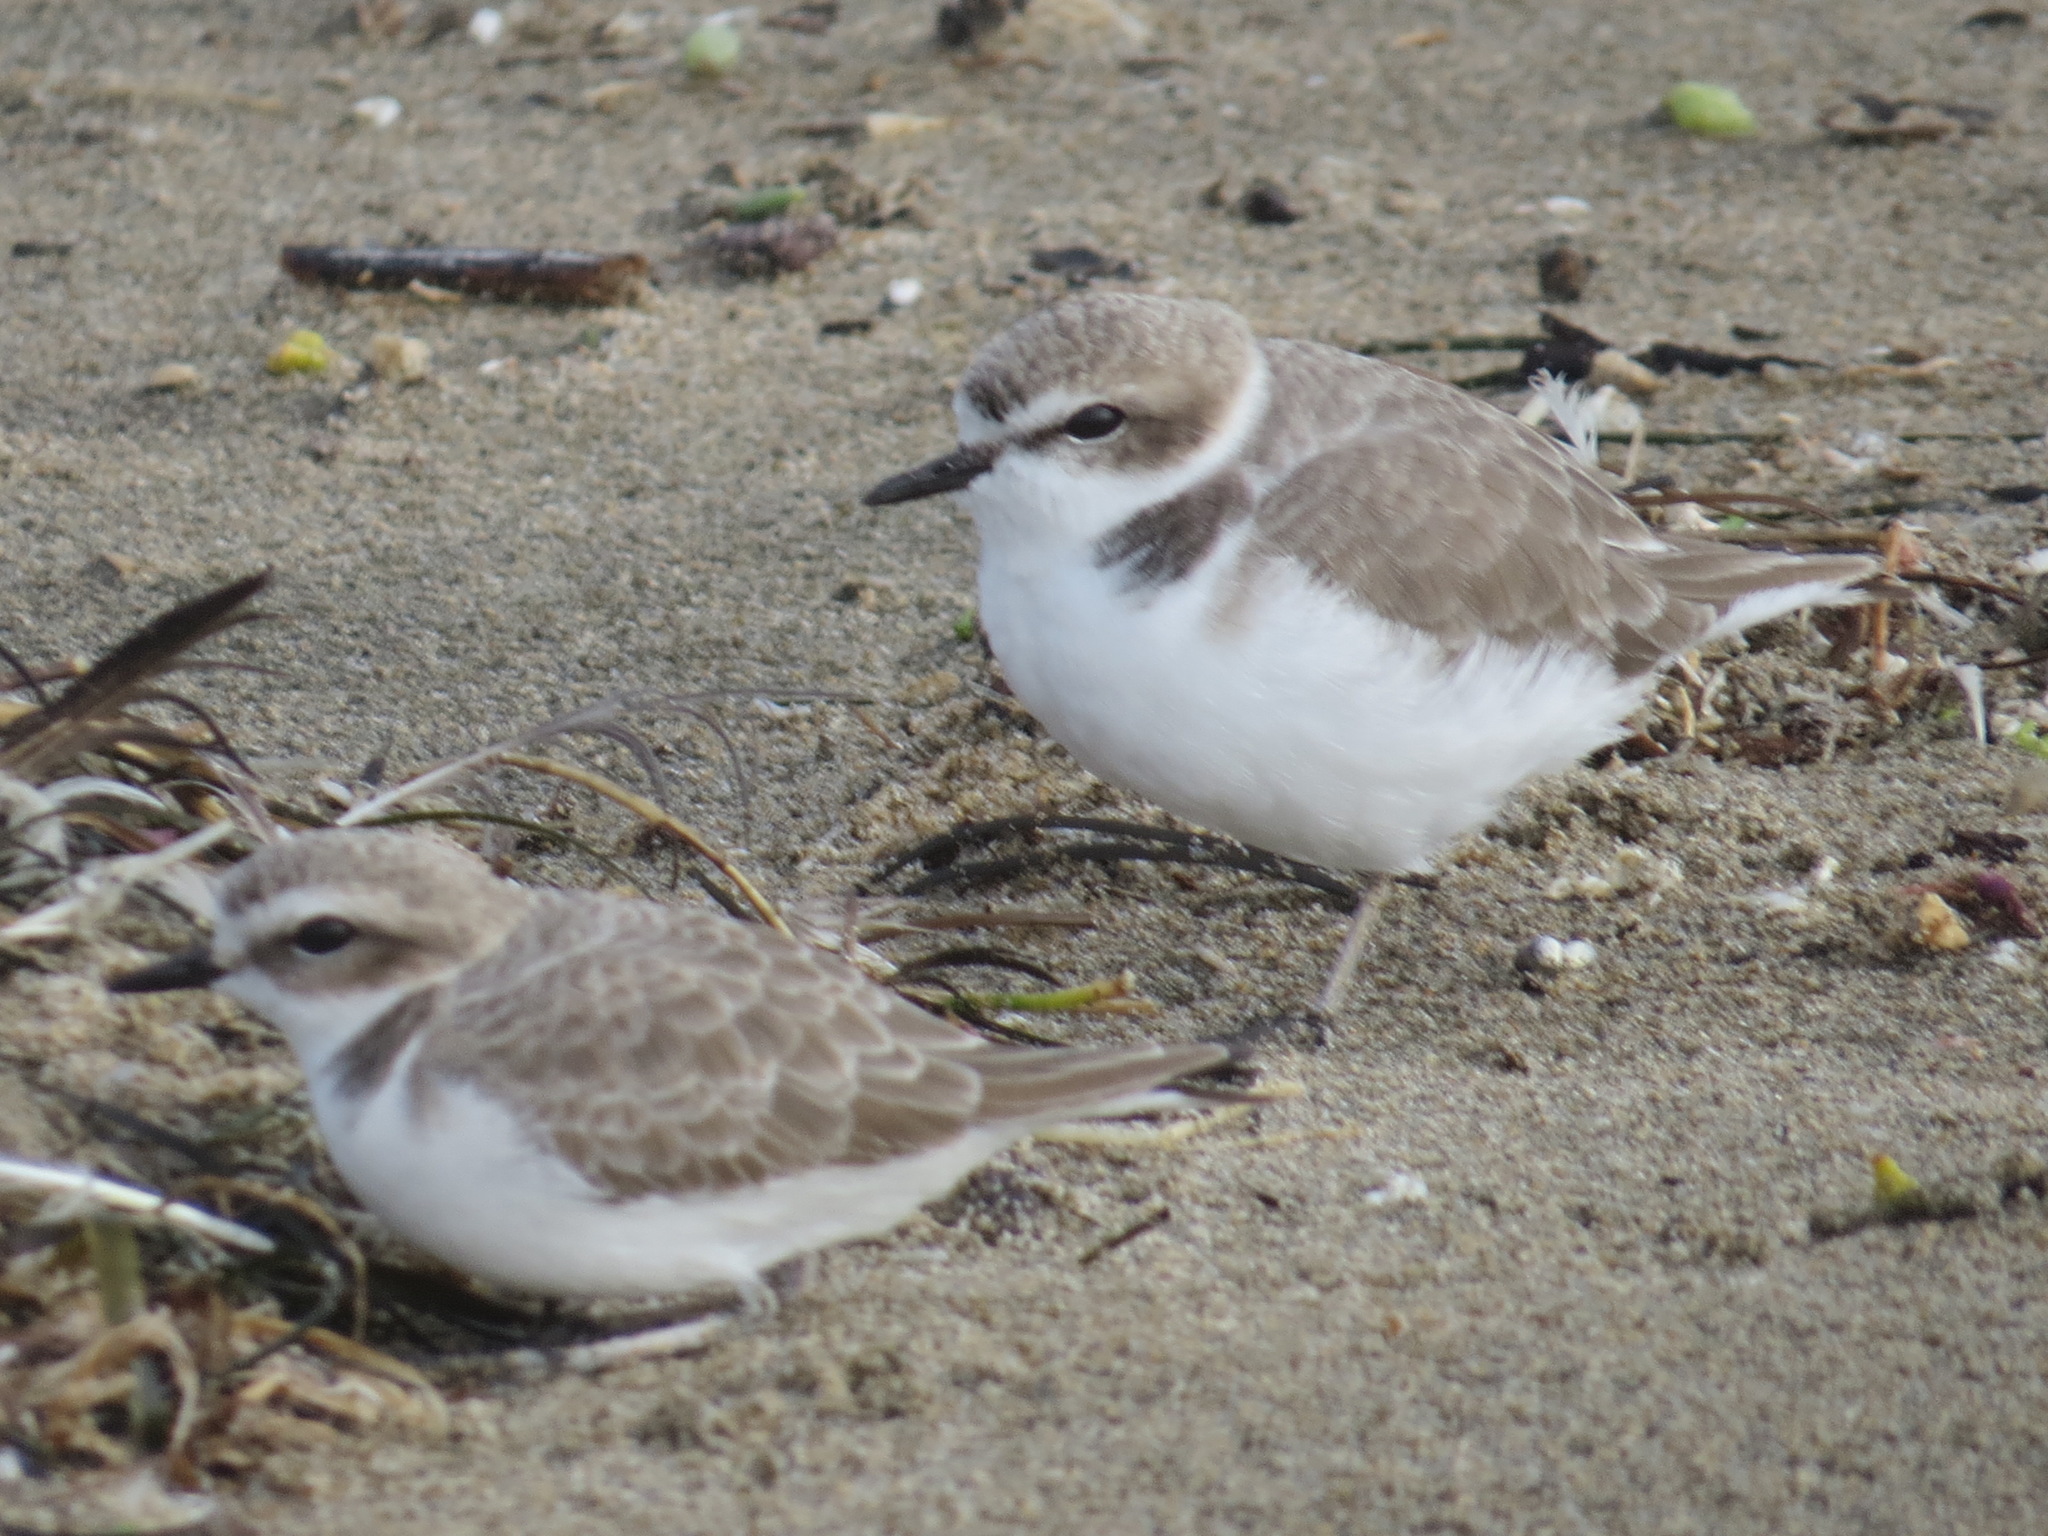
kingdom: Animalia
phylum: Chordata
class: Aves
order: Charadriiformes
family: Charadriidae
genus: Anarhynchus
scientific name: Anarhynchus
